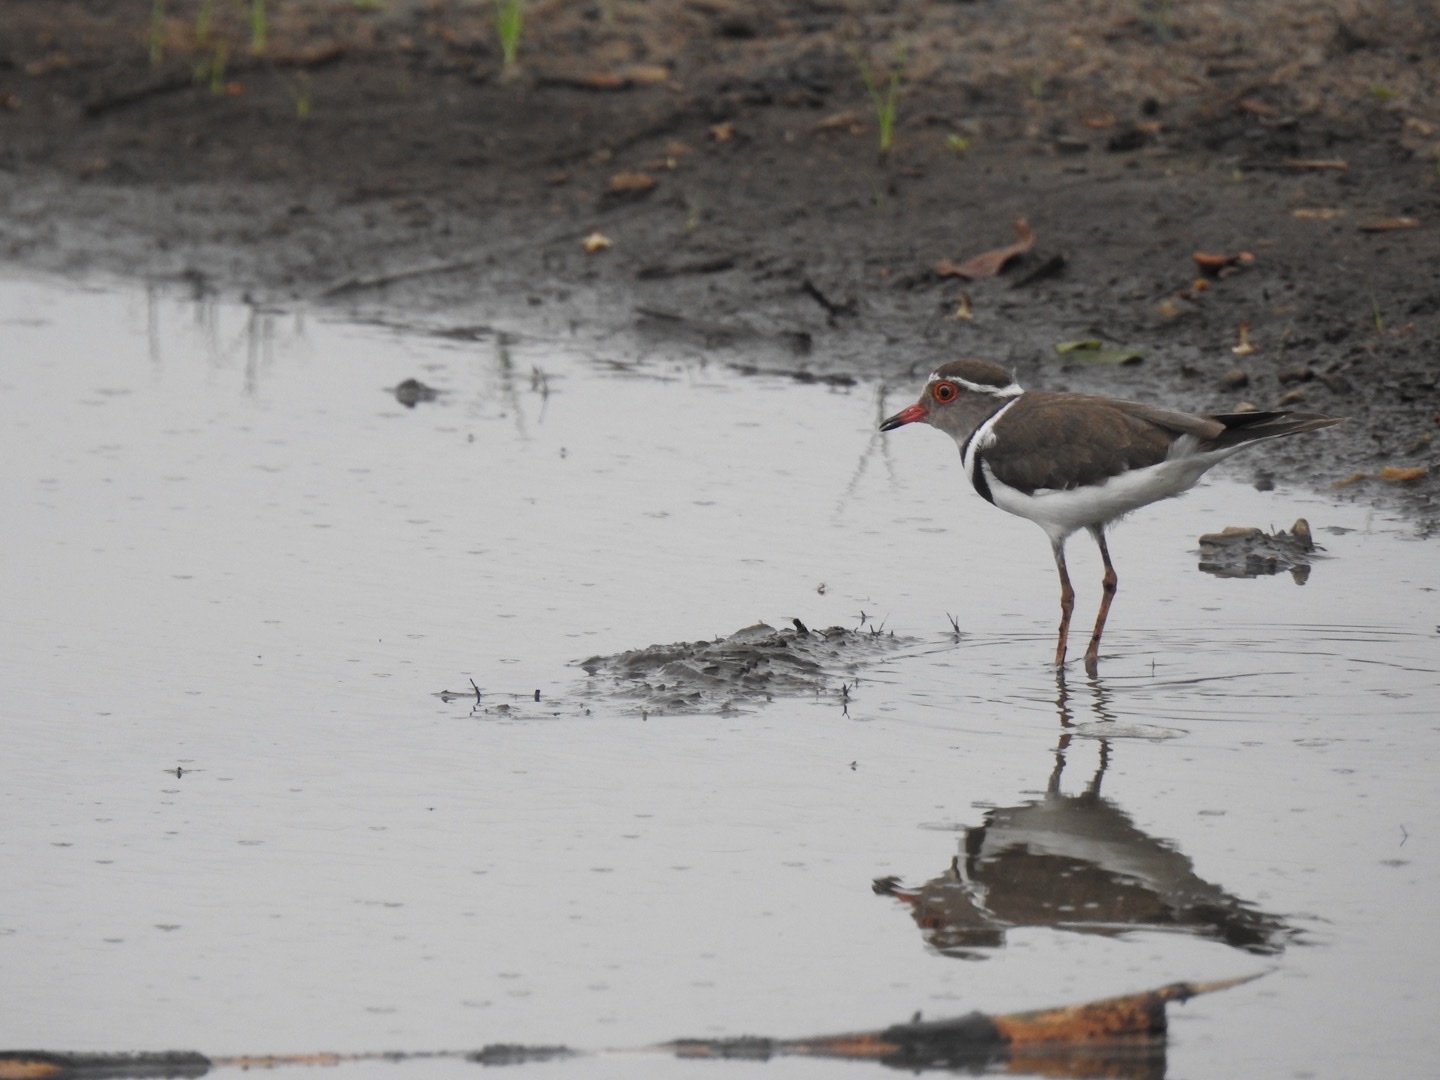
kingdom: Animalia
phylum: Chordata
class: Aves
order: Charadriiformes
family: Charadriidae
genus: Charadrius
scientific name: Charadrius tricollaris
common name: Three-banded plover
